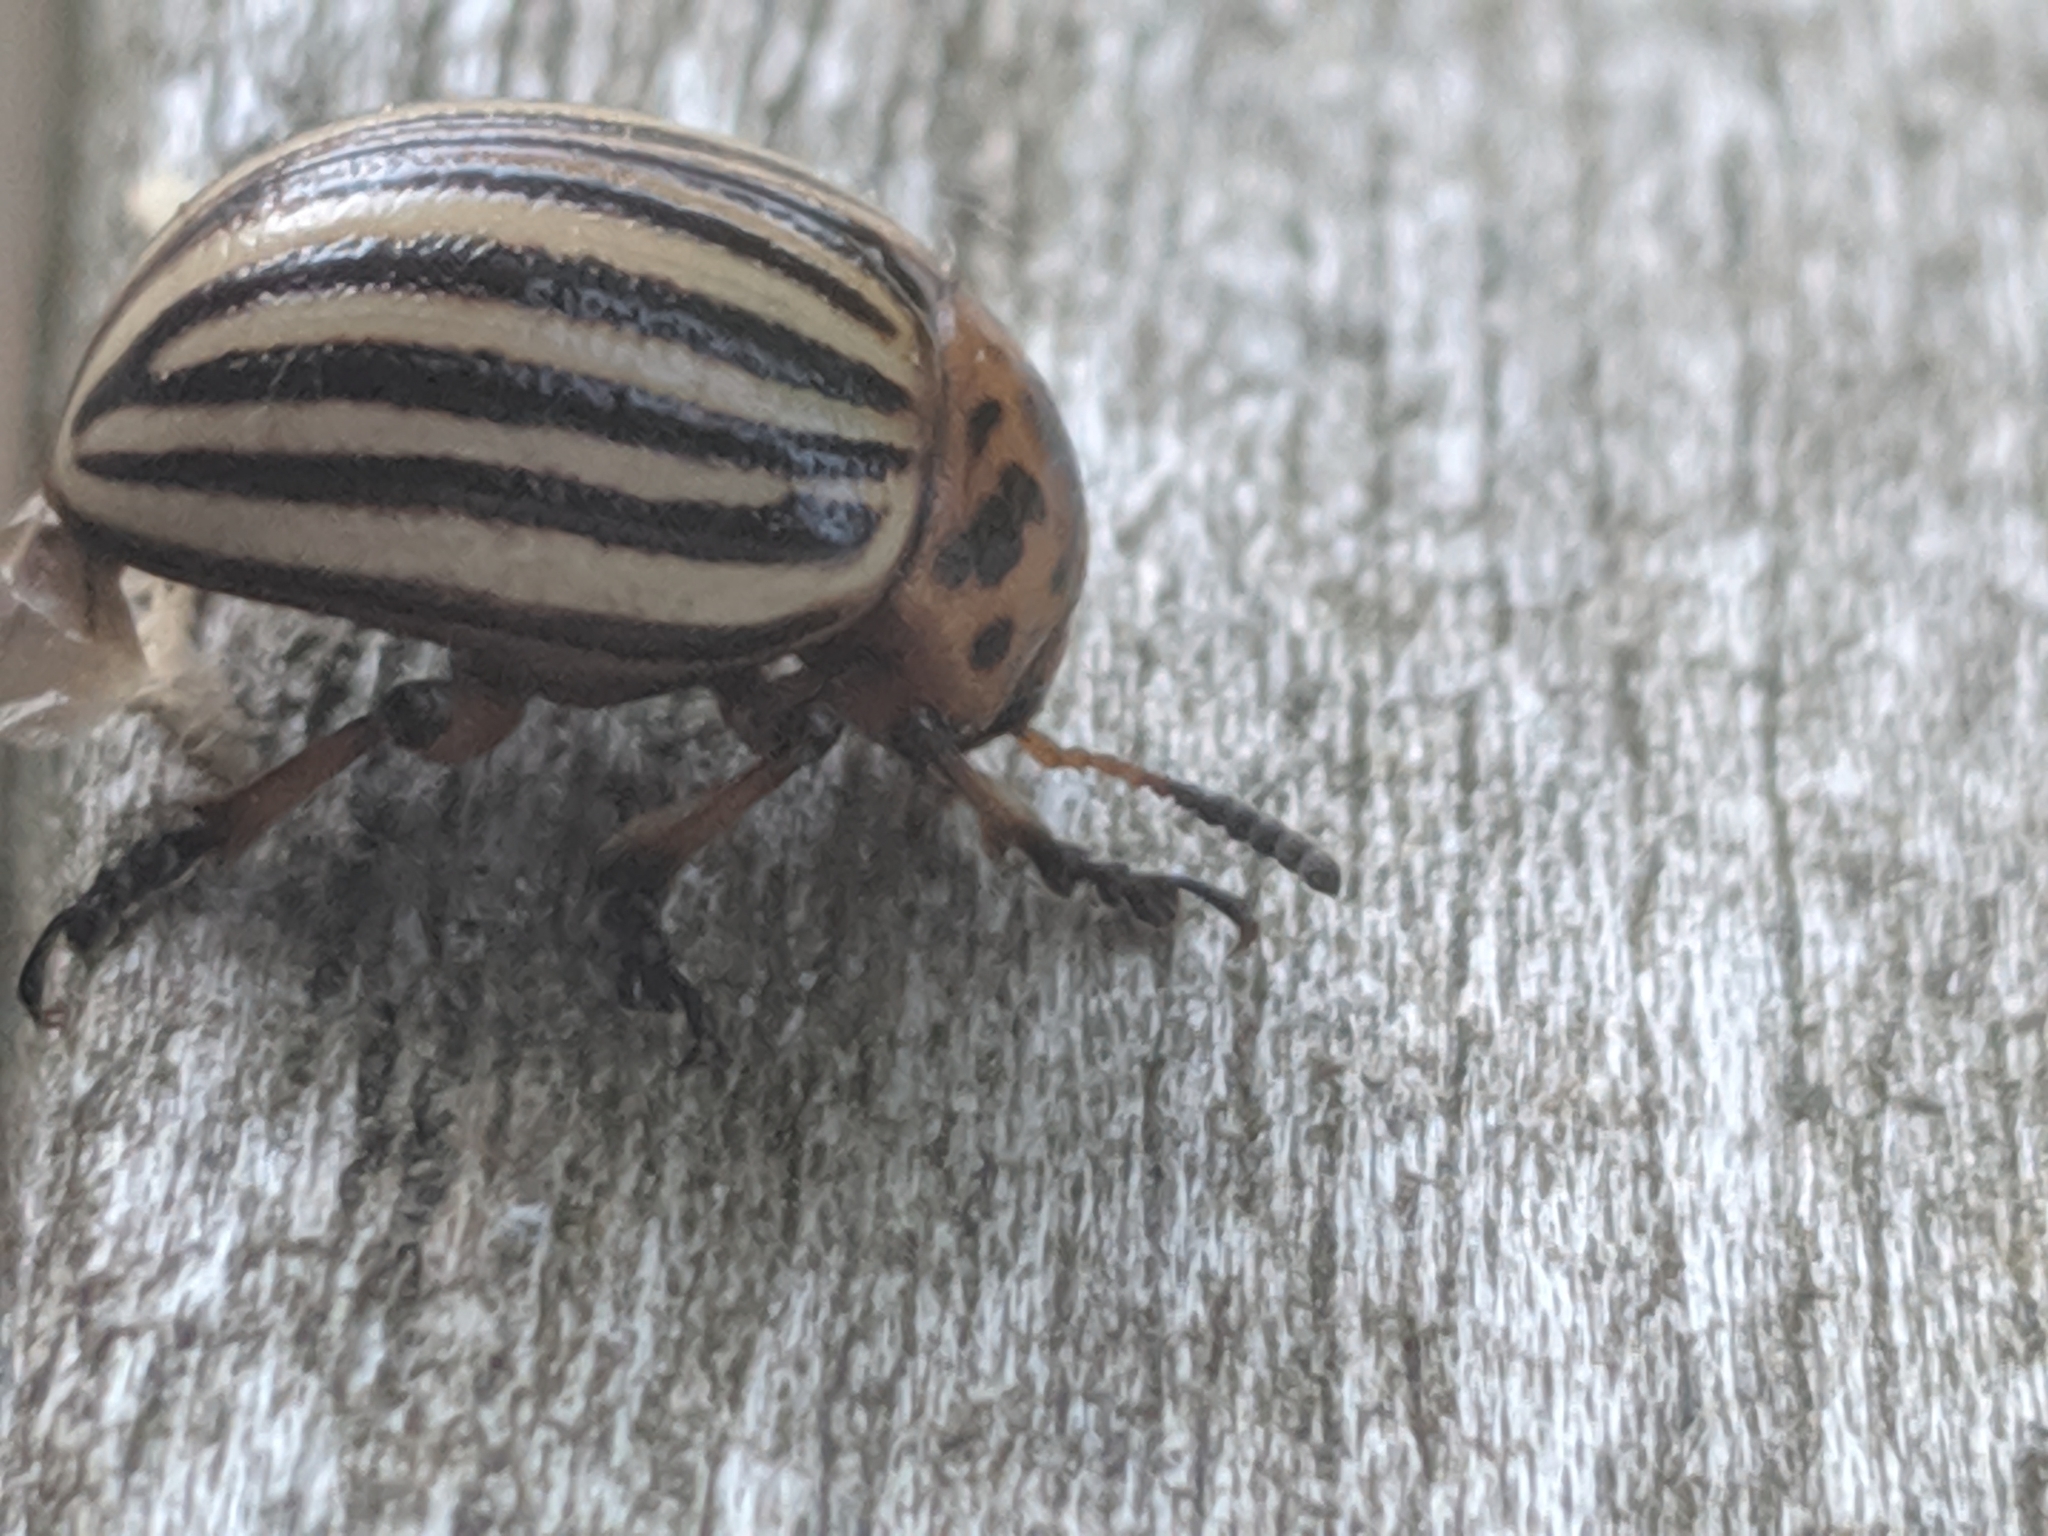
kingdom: Animalia
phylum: Arthropoda
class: Insecta
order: Coleoptera
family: Chrysomelidae
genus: Leptinotarsa
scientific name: Leptinotarsa decemlineata
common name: Colorado potato beetle
